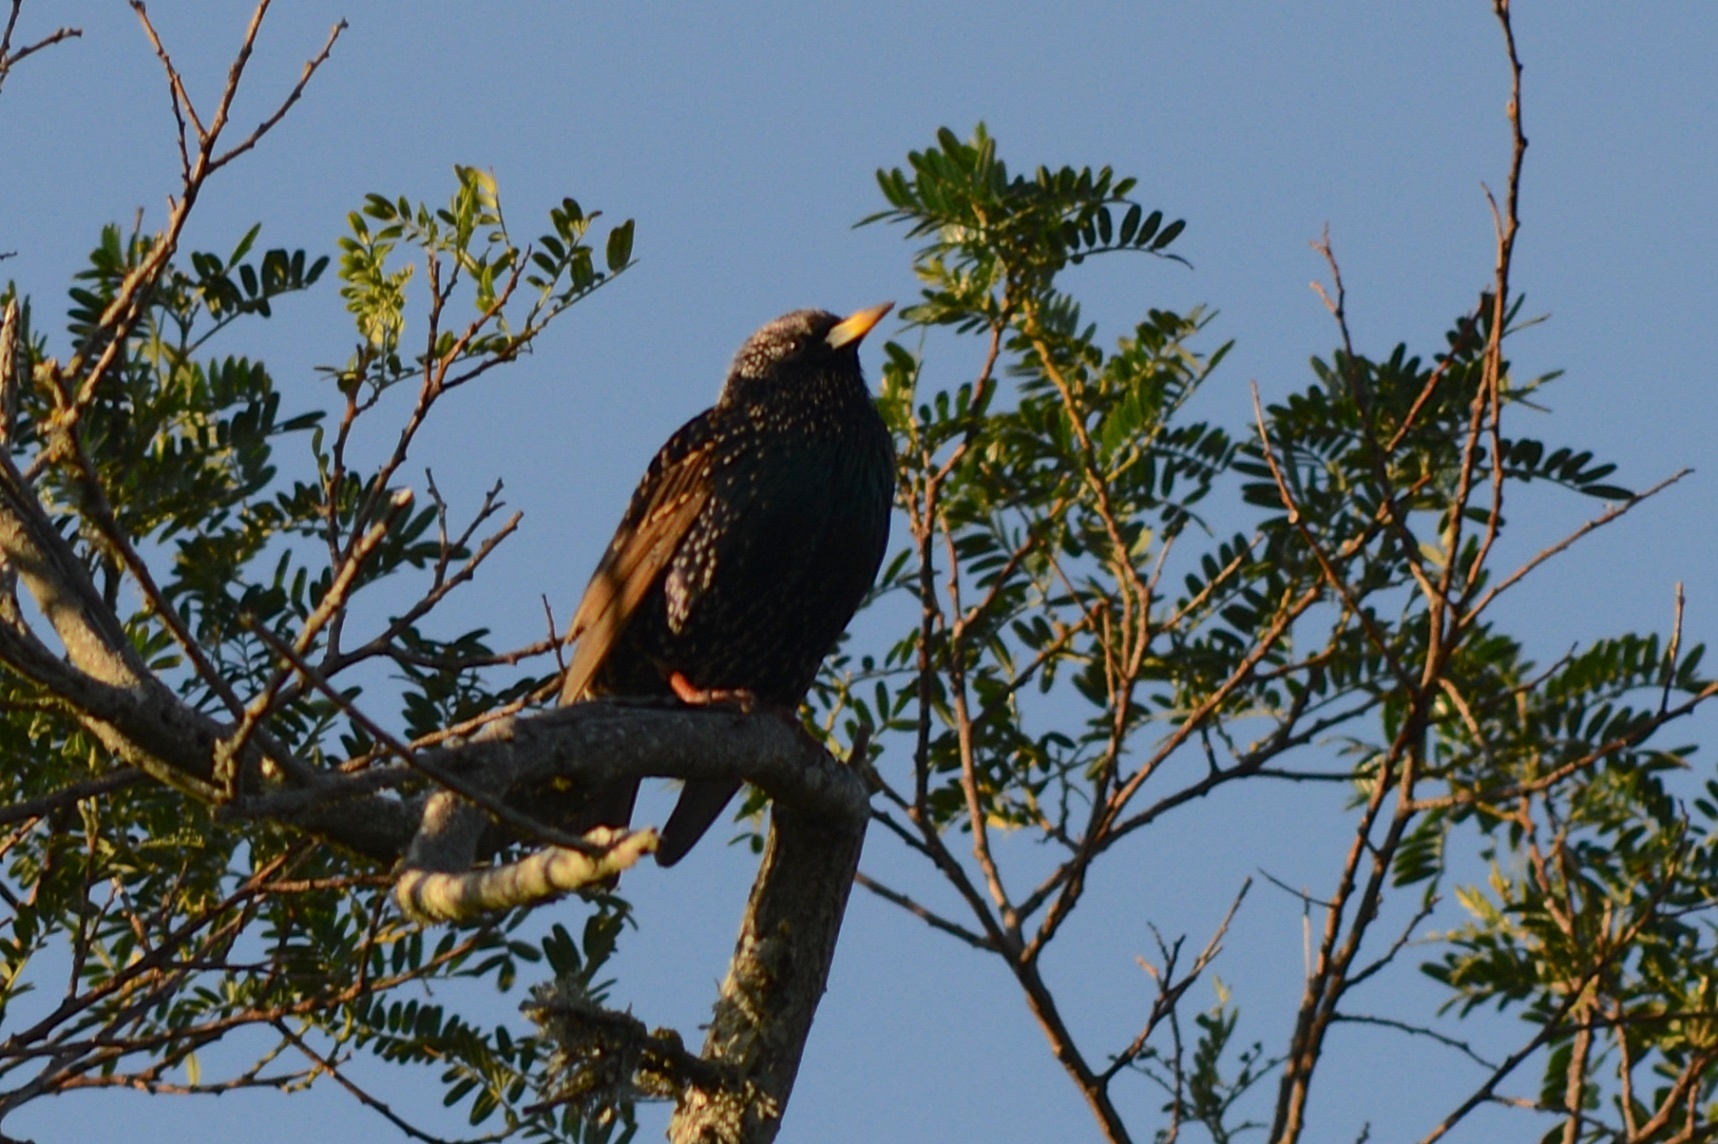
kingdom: Animalia
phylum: Chordata
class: Aves
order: Passeriformes
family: Sturnidae
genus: Sturnus
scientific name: Sturnus vulgaris
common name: Common starling
